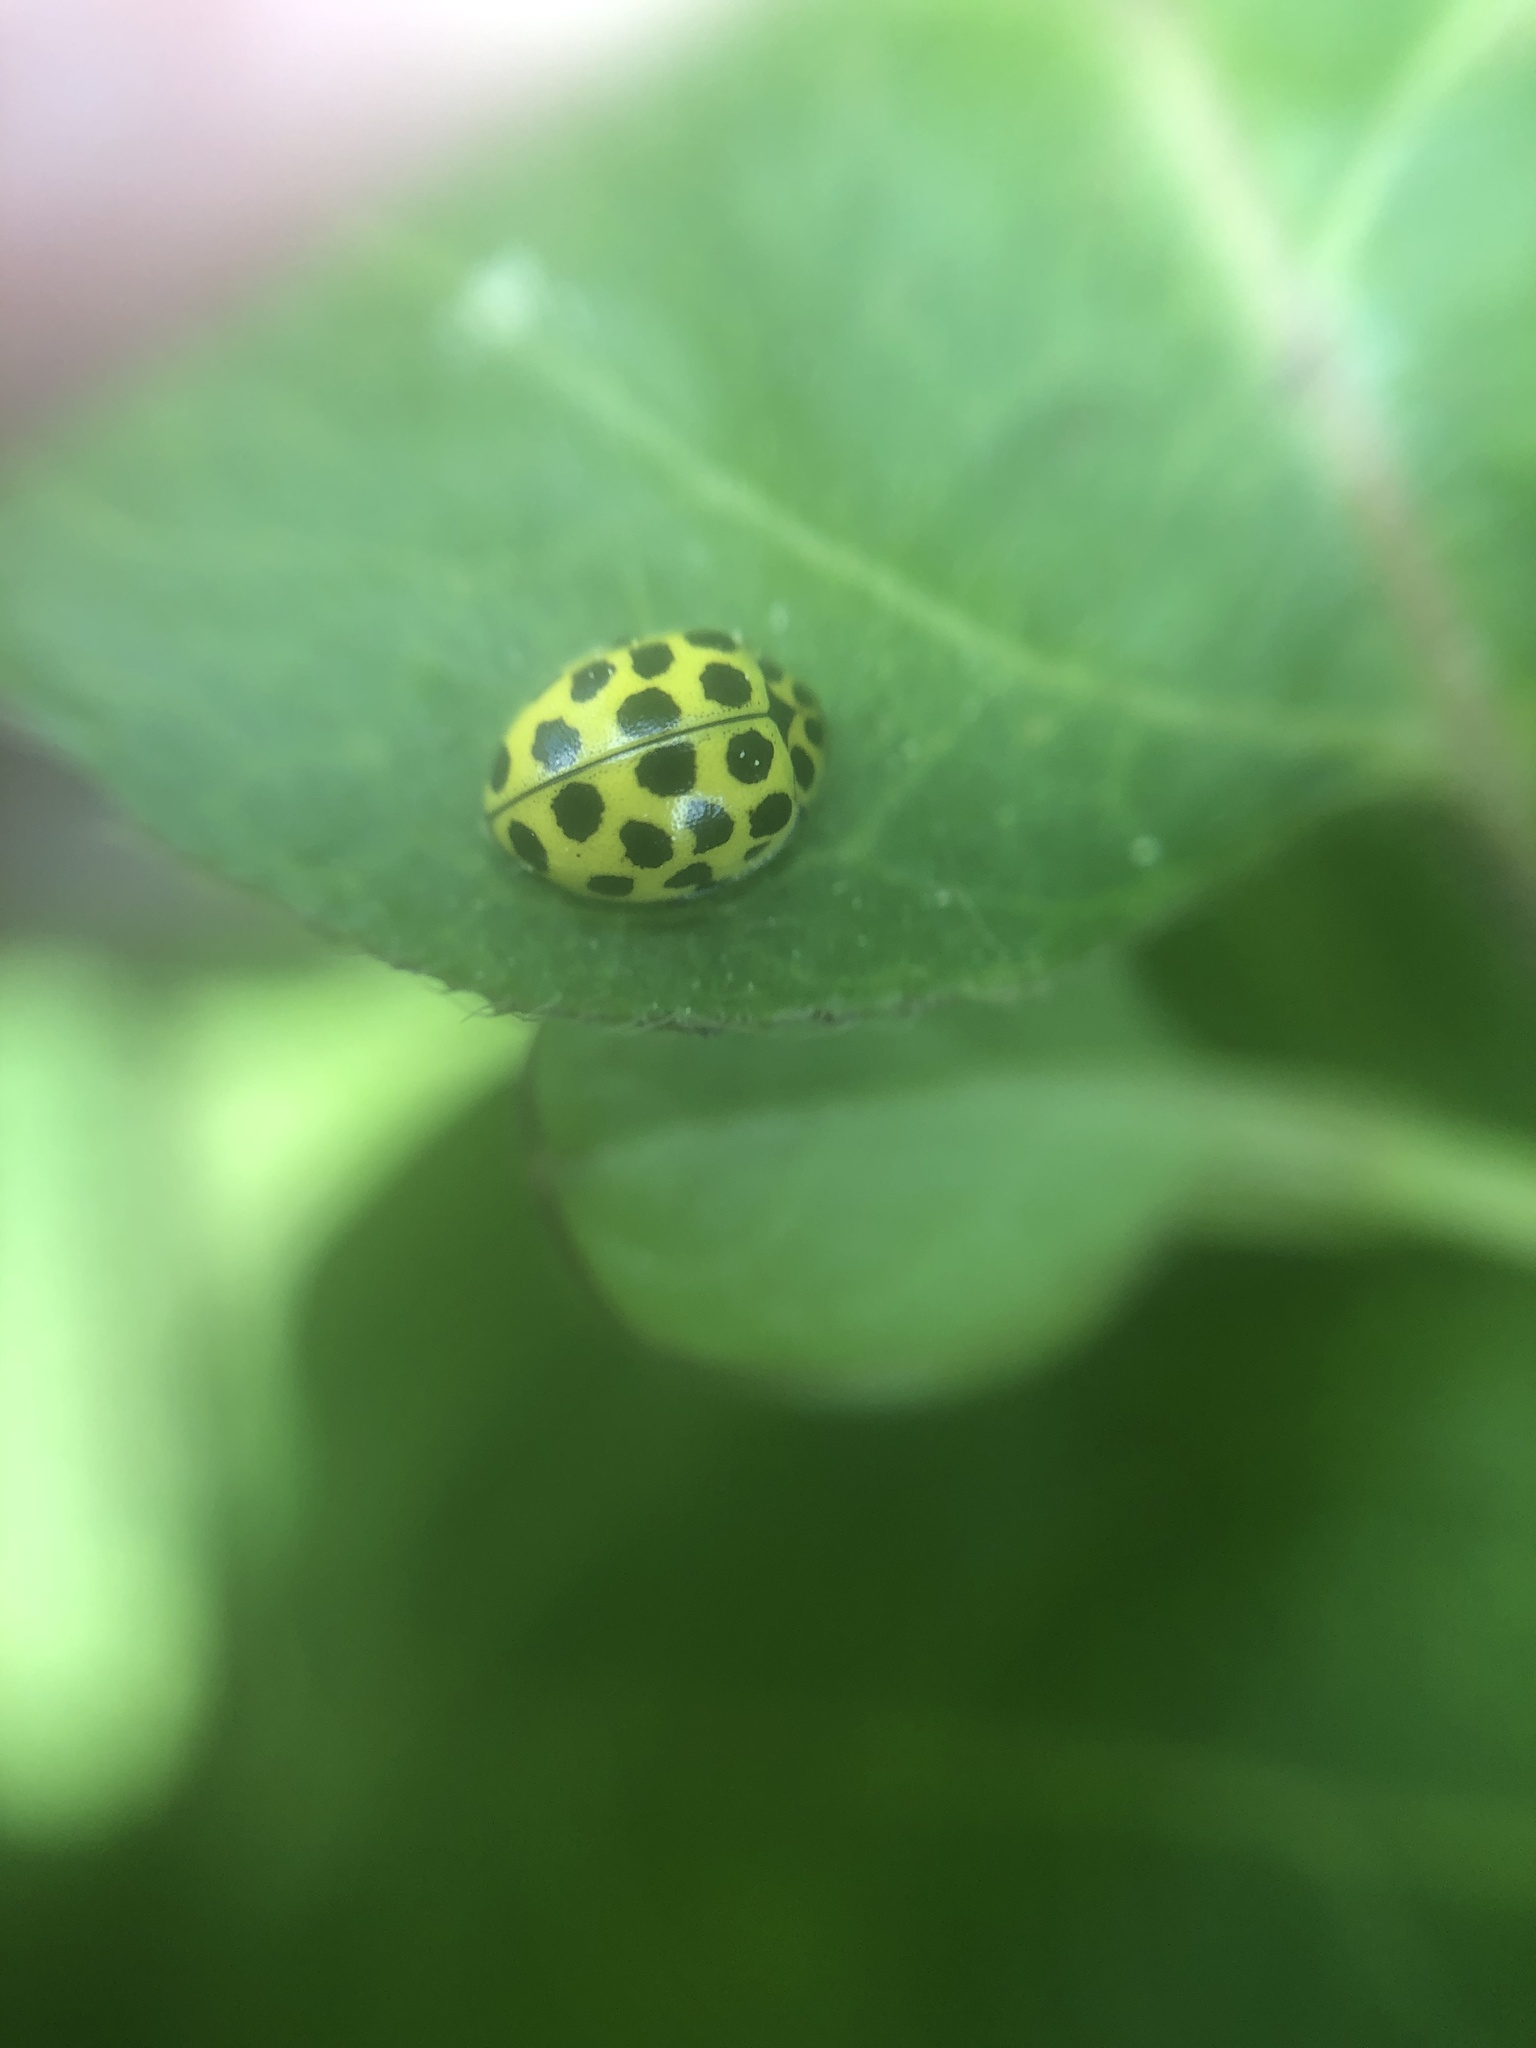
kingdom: Animalia
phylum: Arthropoda
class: Insecta
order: Coleoptera
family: Coccinellidae
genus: Psyllobora
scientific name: Psyllobora vigintiduopunctata
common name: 22-spot ladybird
